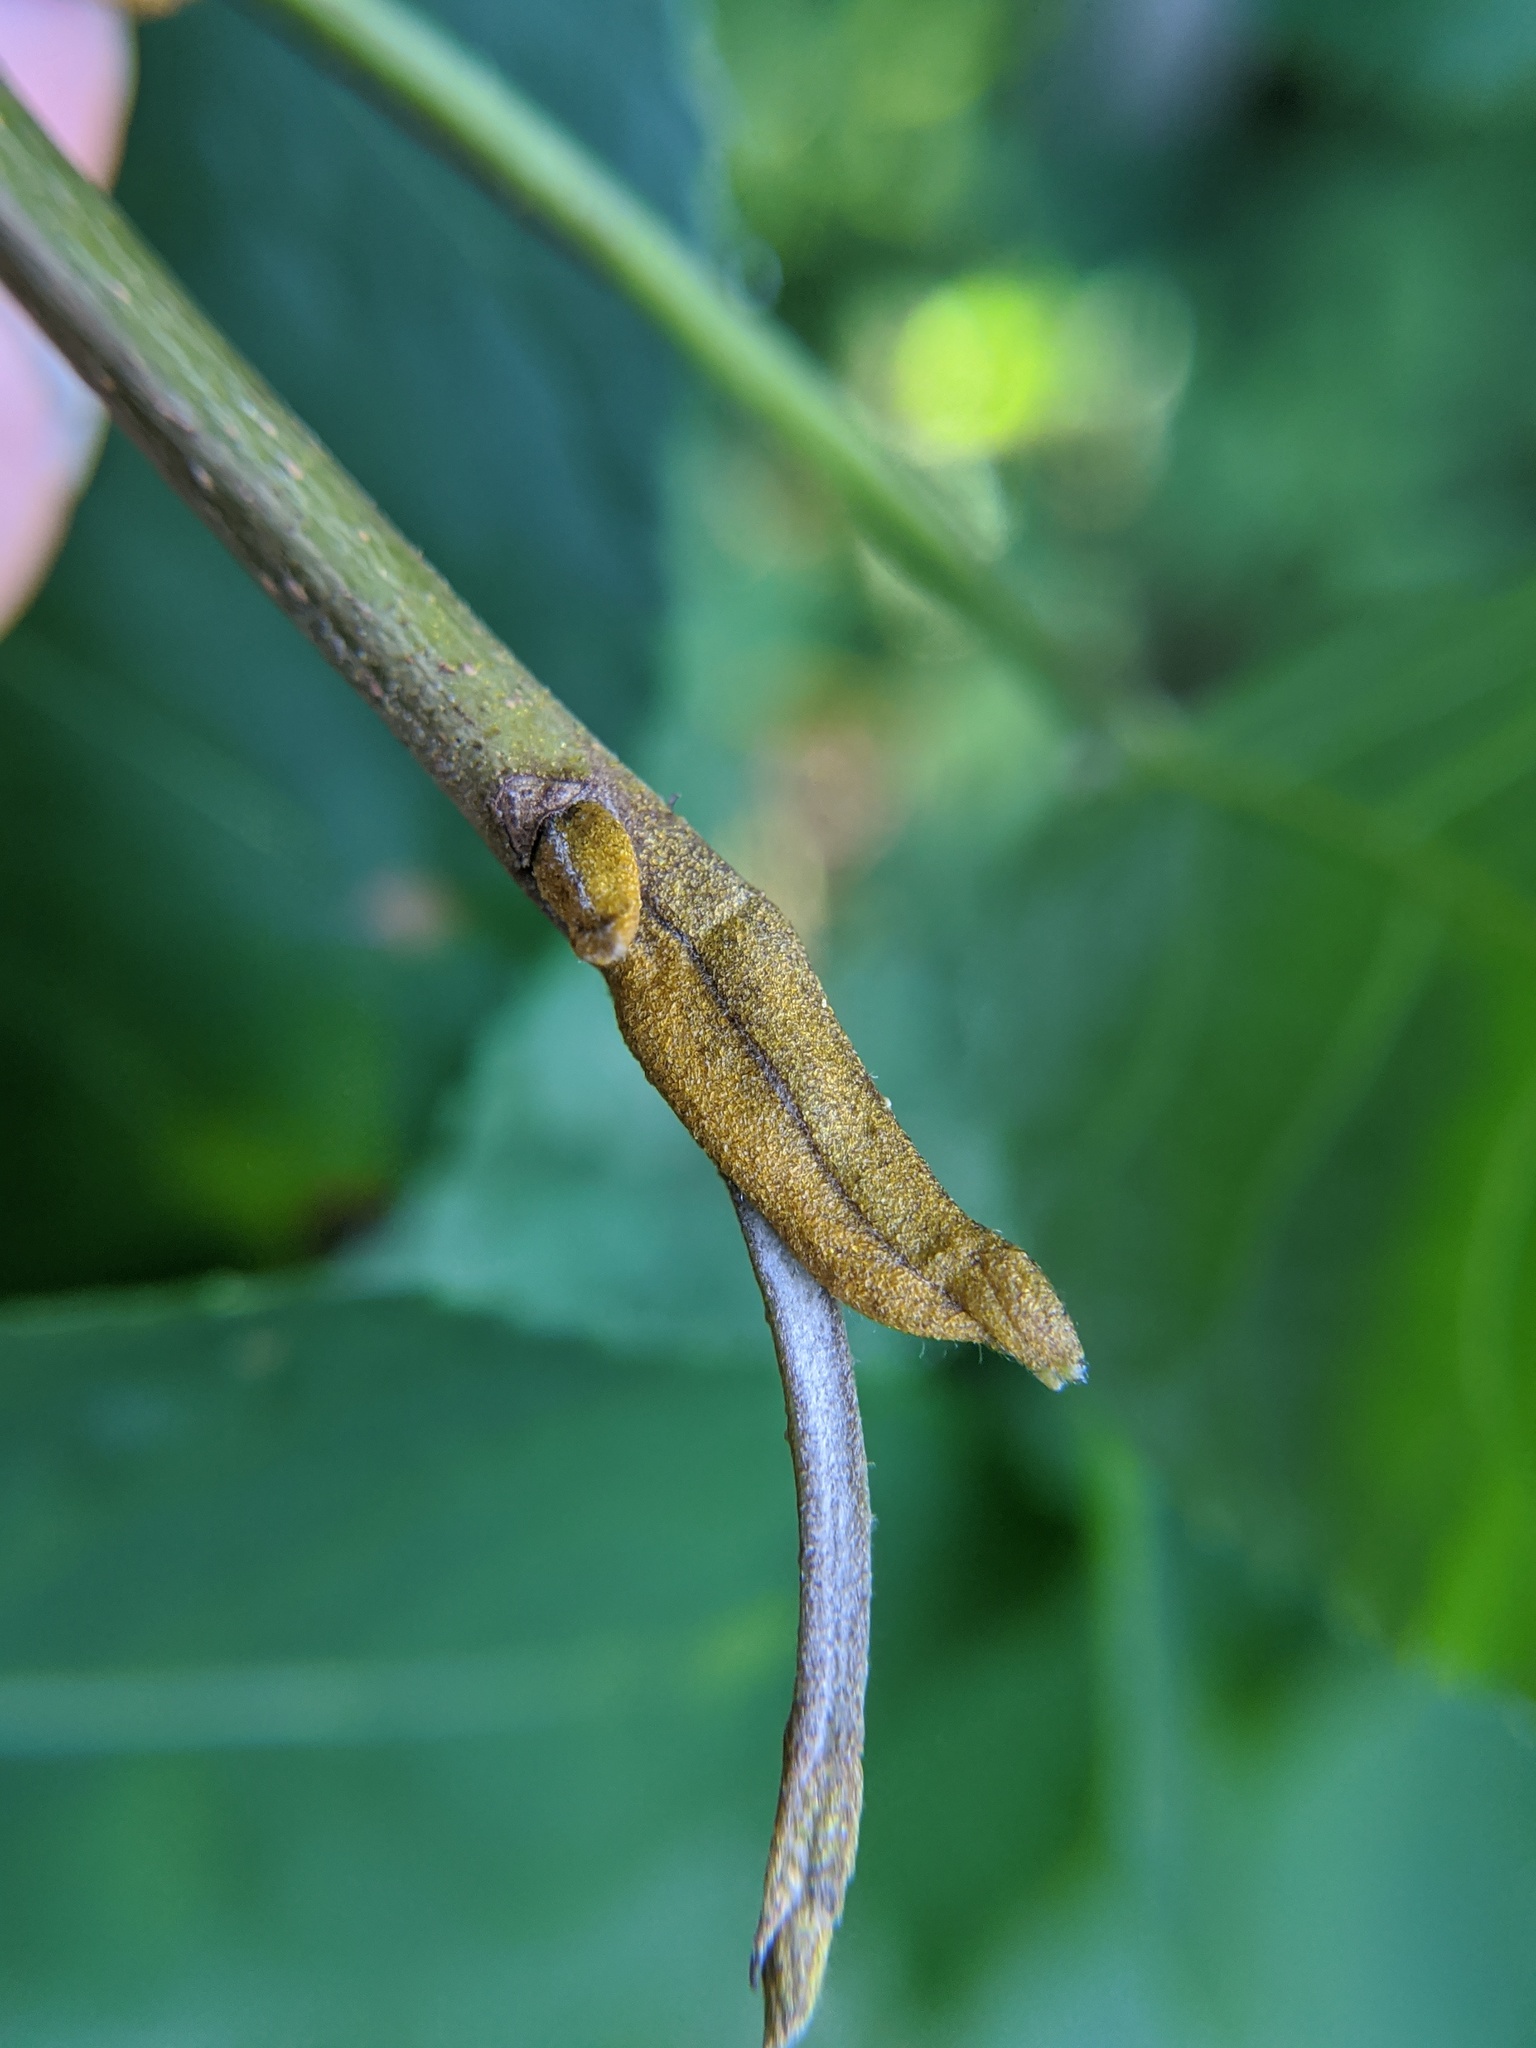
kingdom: Plantae
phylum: Tracheophyta
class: Magnoliopsida
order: Fagales
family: Juglandaceae
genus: Carya
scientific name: Carya cordiformis
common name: Bitternut hickory
